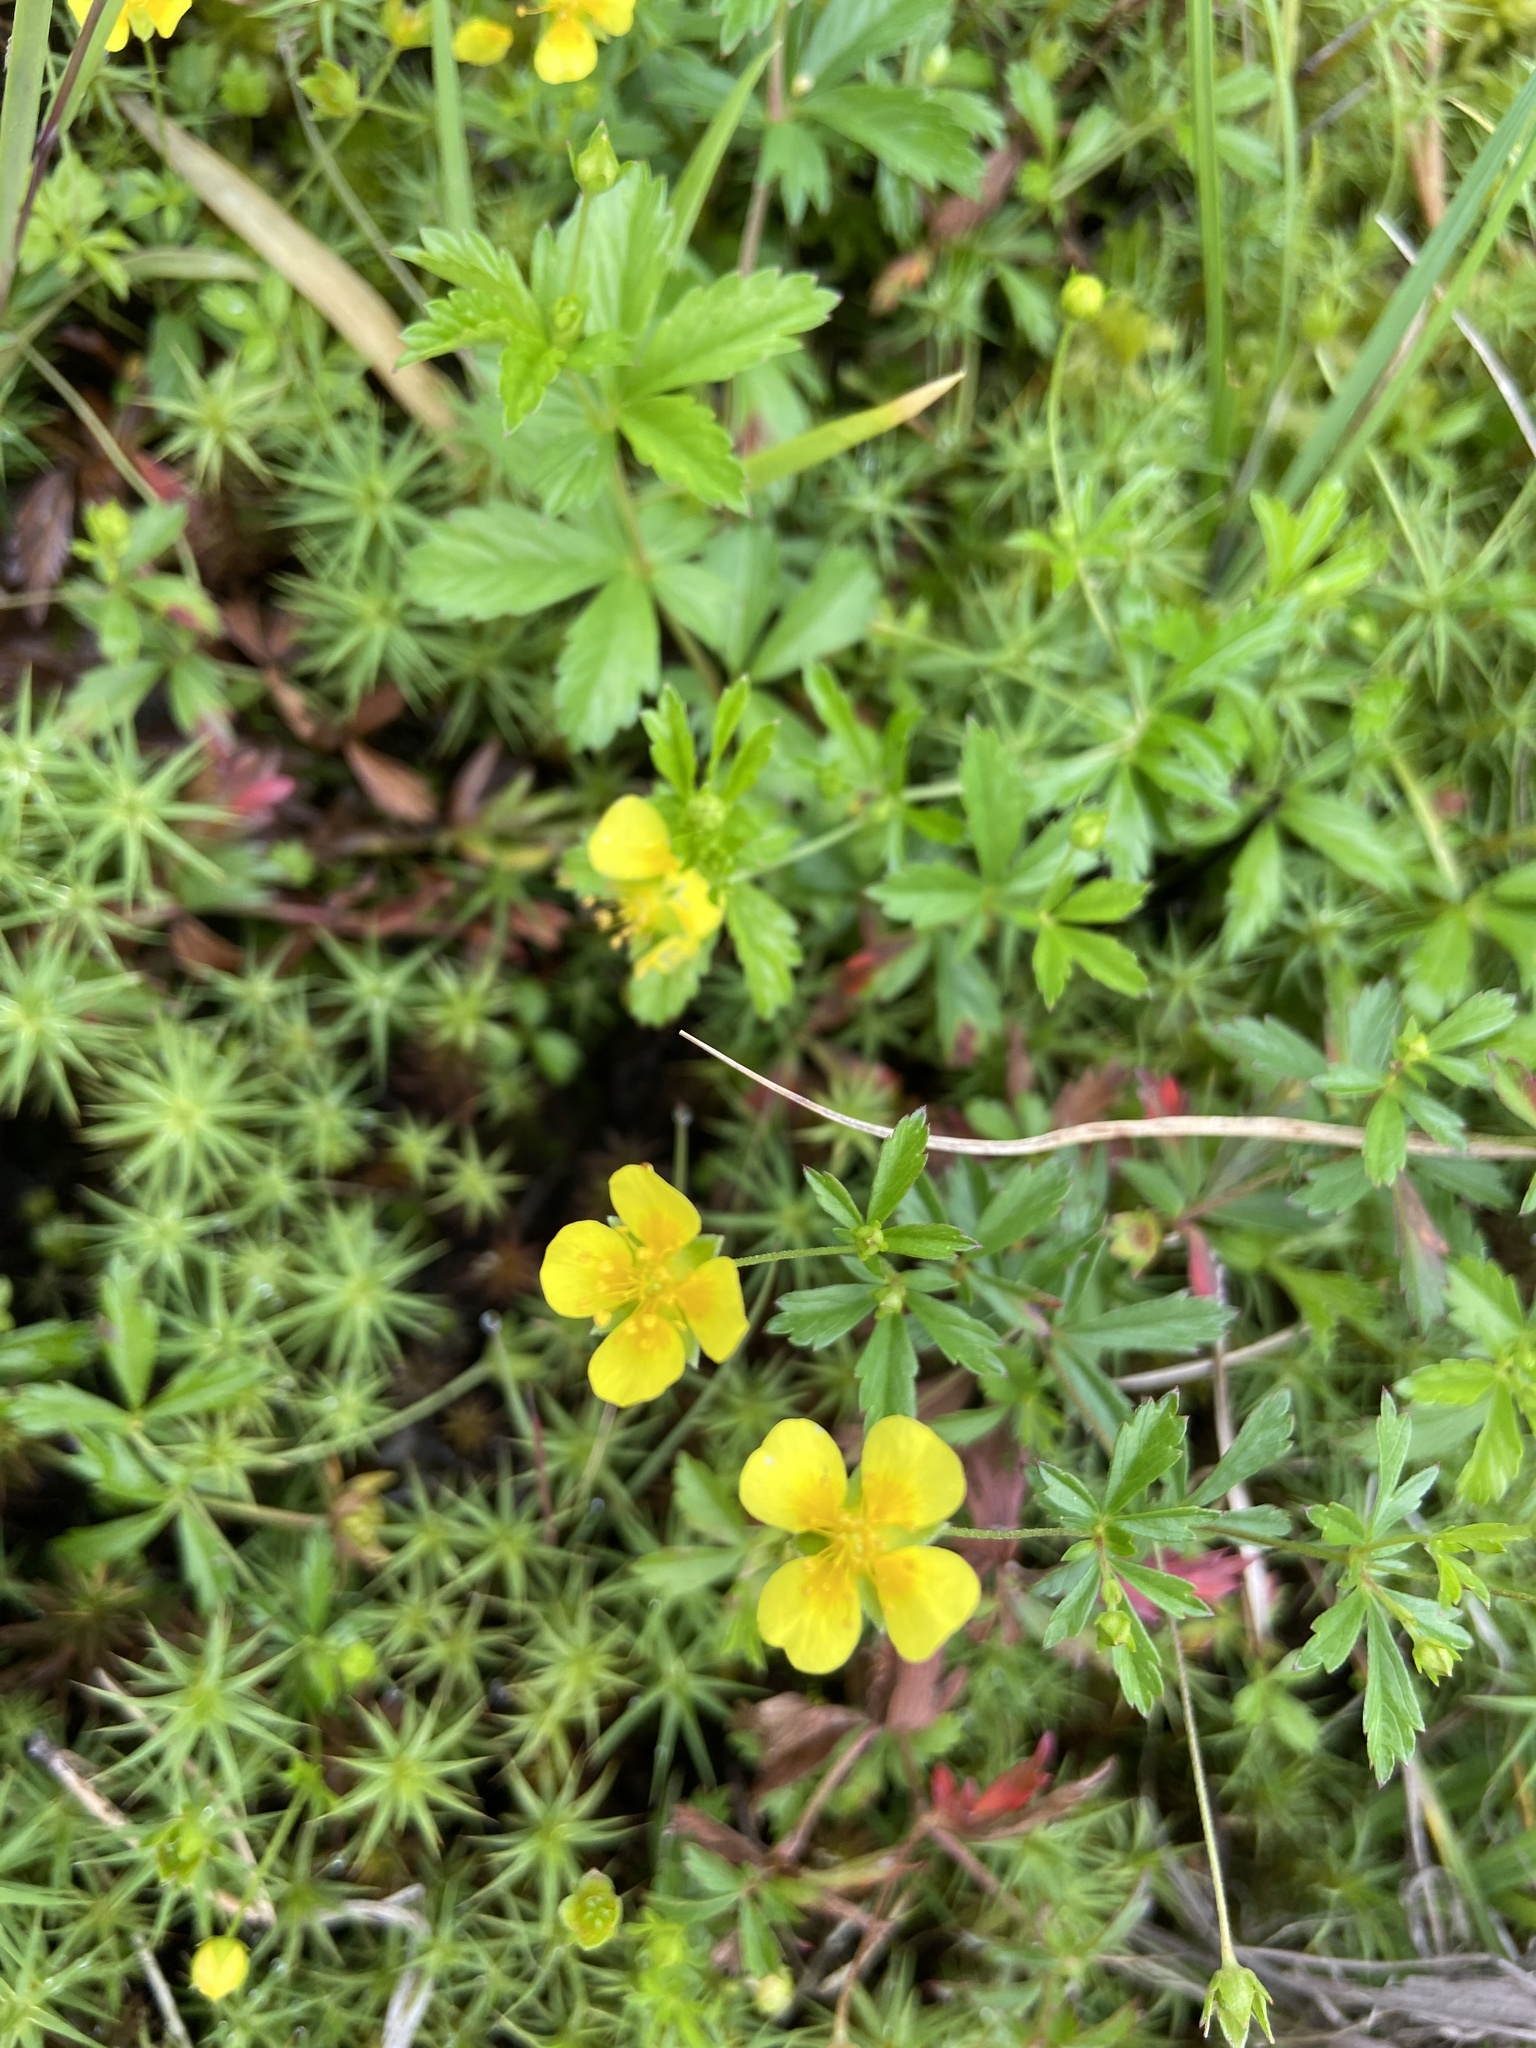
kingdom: Plantae
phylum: Tracheophyta
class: Magnoliopsida
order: Rosales
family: Rosaceae
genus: Potentilla
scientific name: Potentilla erecta
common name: Tormentil
